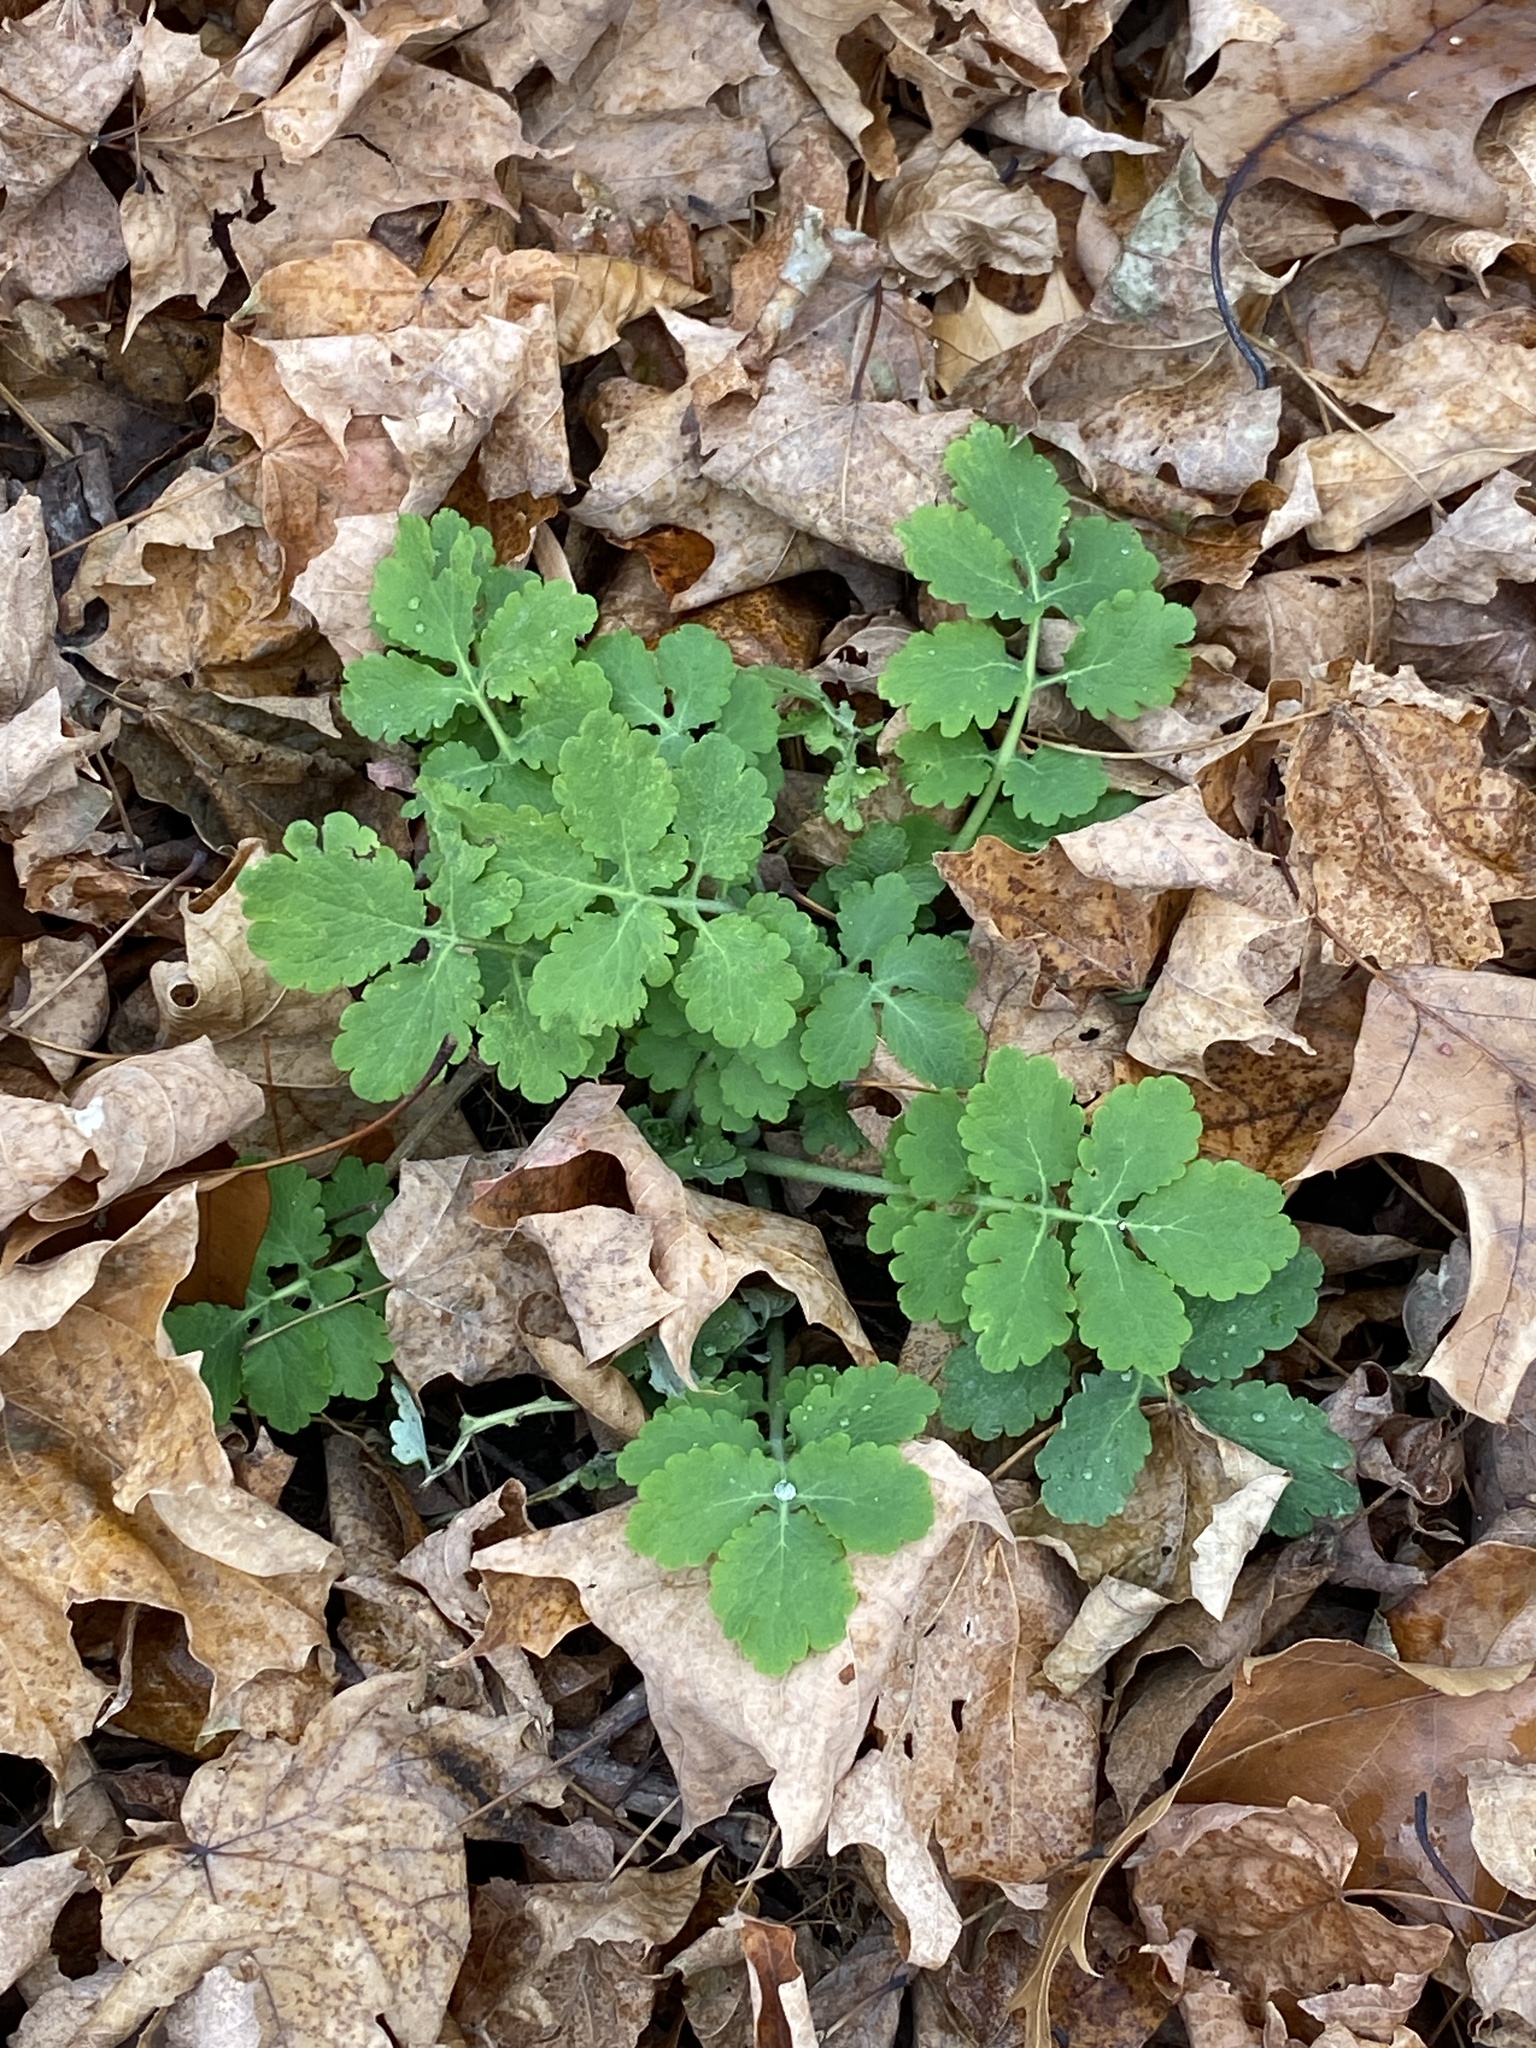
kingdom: Plantae
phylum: Tracheophyta
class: Magnoliopsida
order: Ranunculales
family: Papaveraceae
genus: Chelidonium
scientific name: Chelidonium majus
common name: Greater celandine
